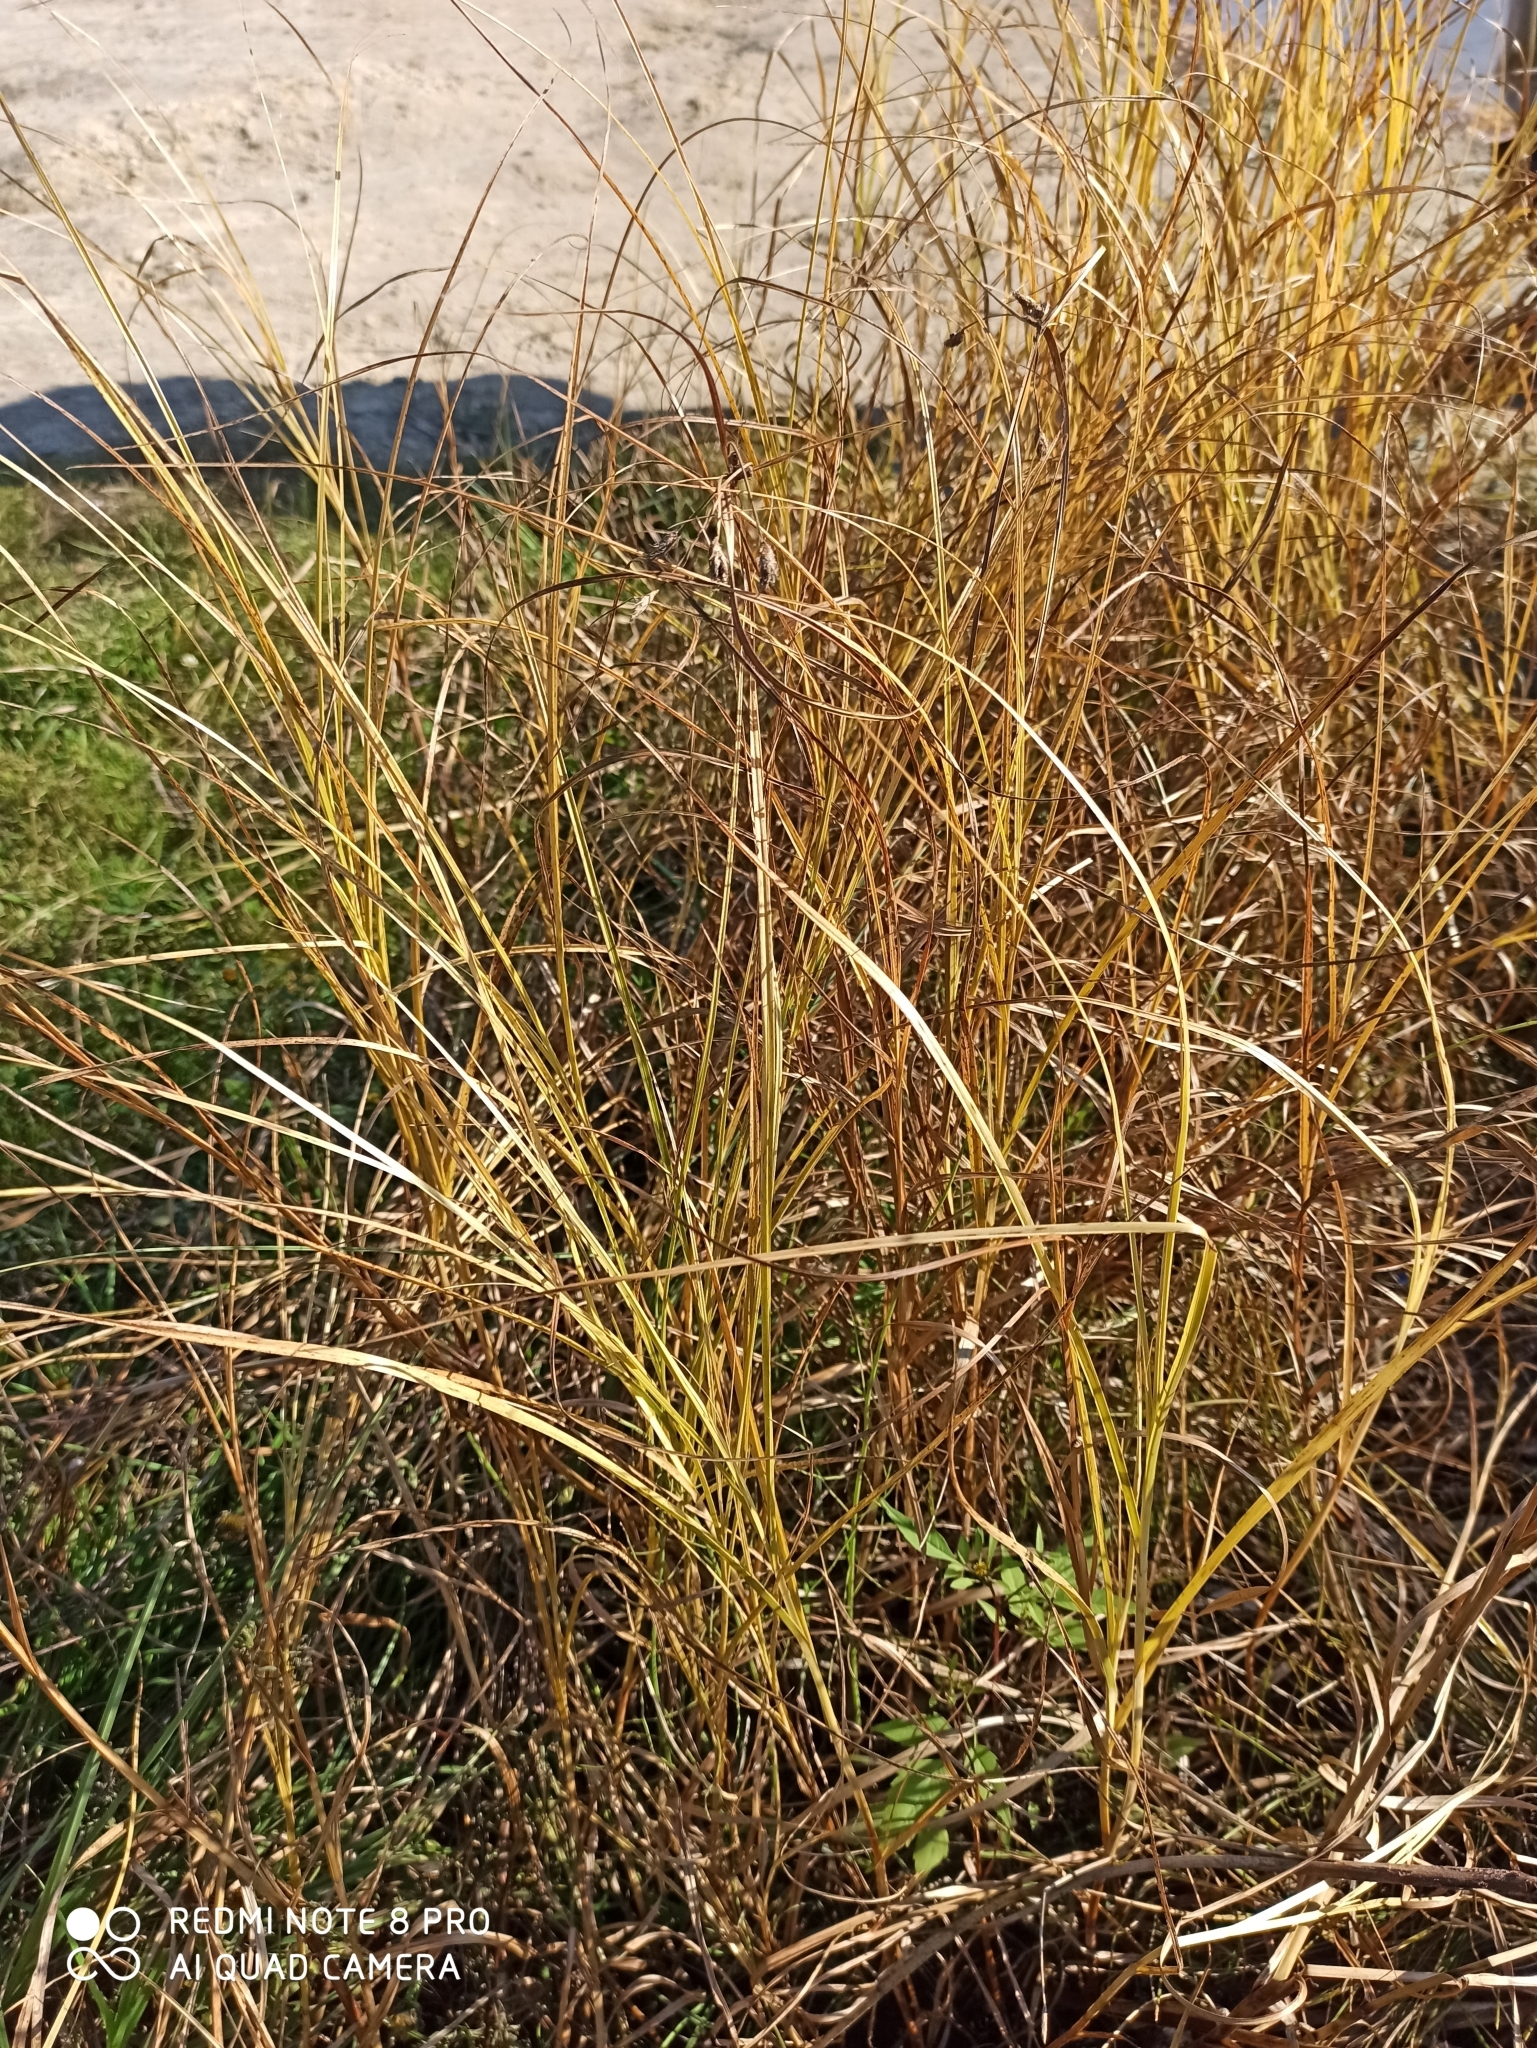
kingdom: Plantae
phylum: Tracheophyta
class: Liliopsida
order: Poales
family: Cyperaceae
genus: Bolboschoenus
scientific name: Bolboschoenus maritimus
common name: Sea club-rush
